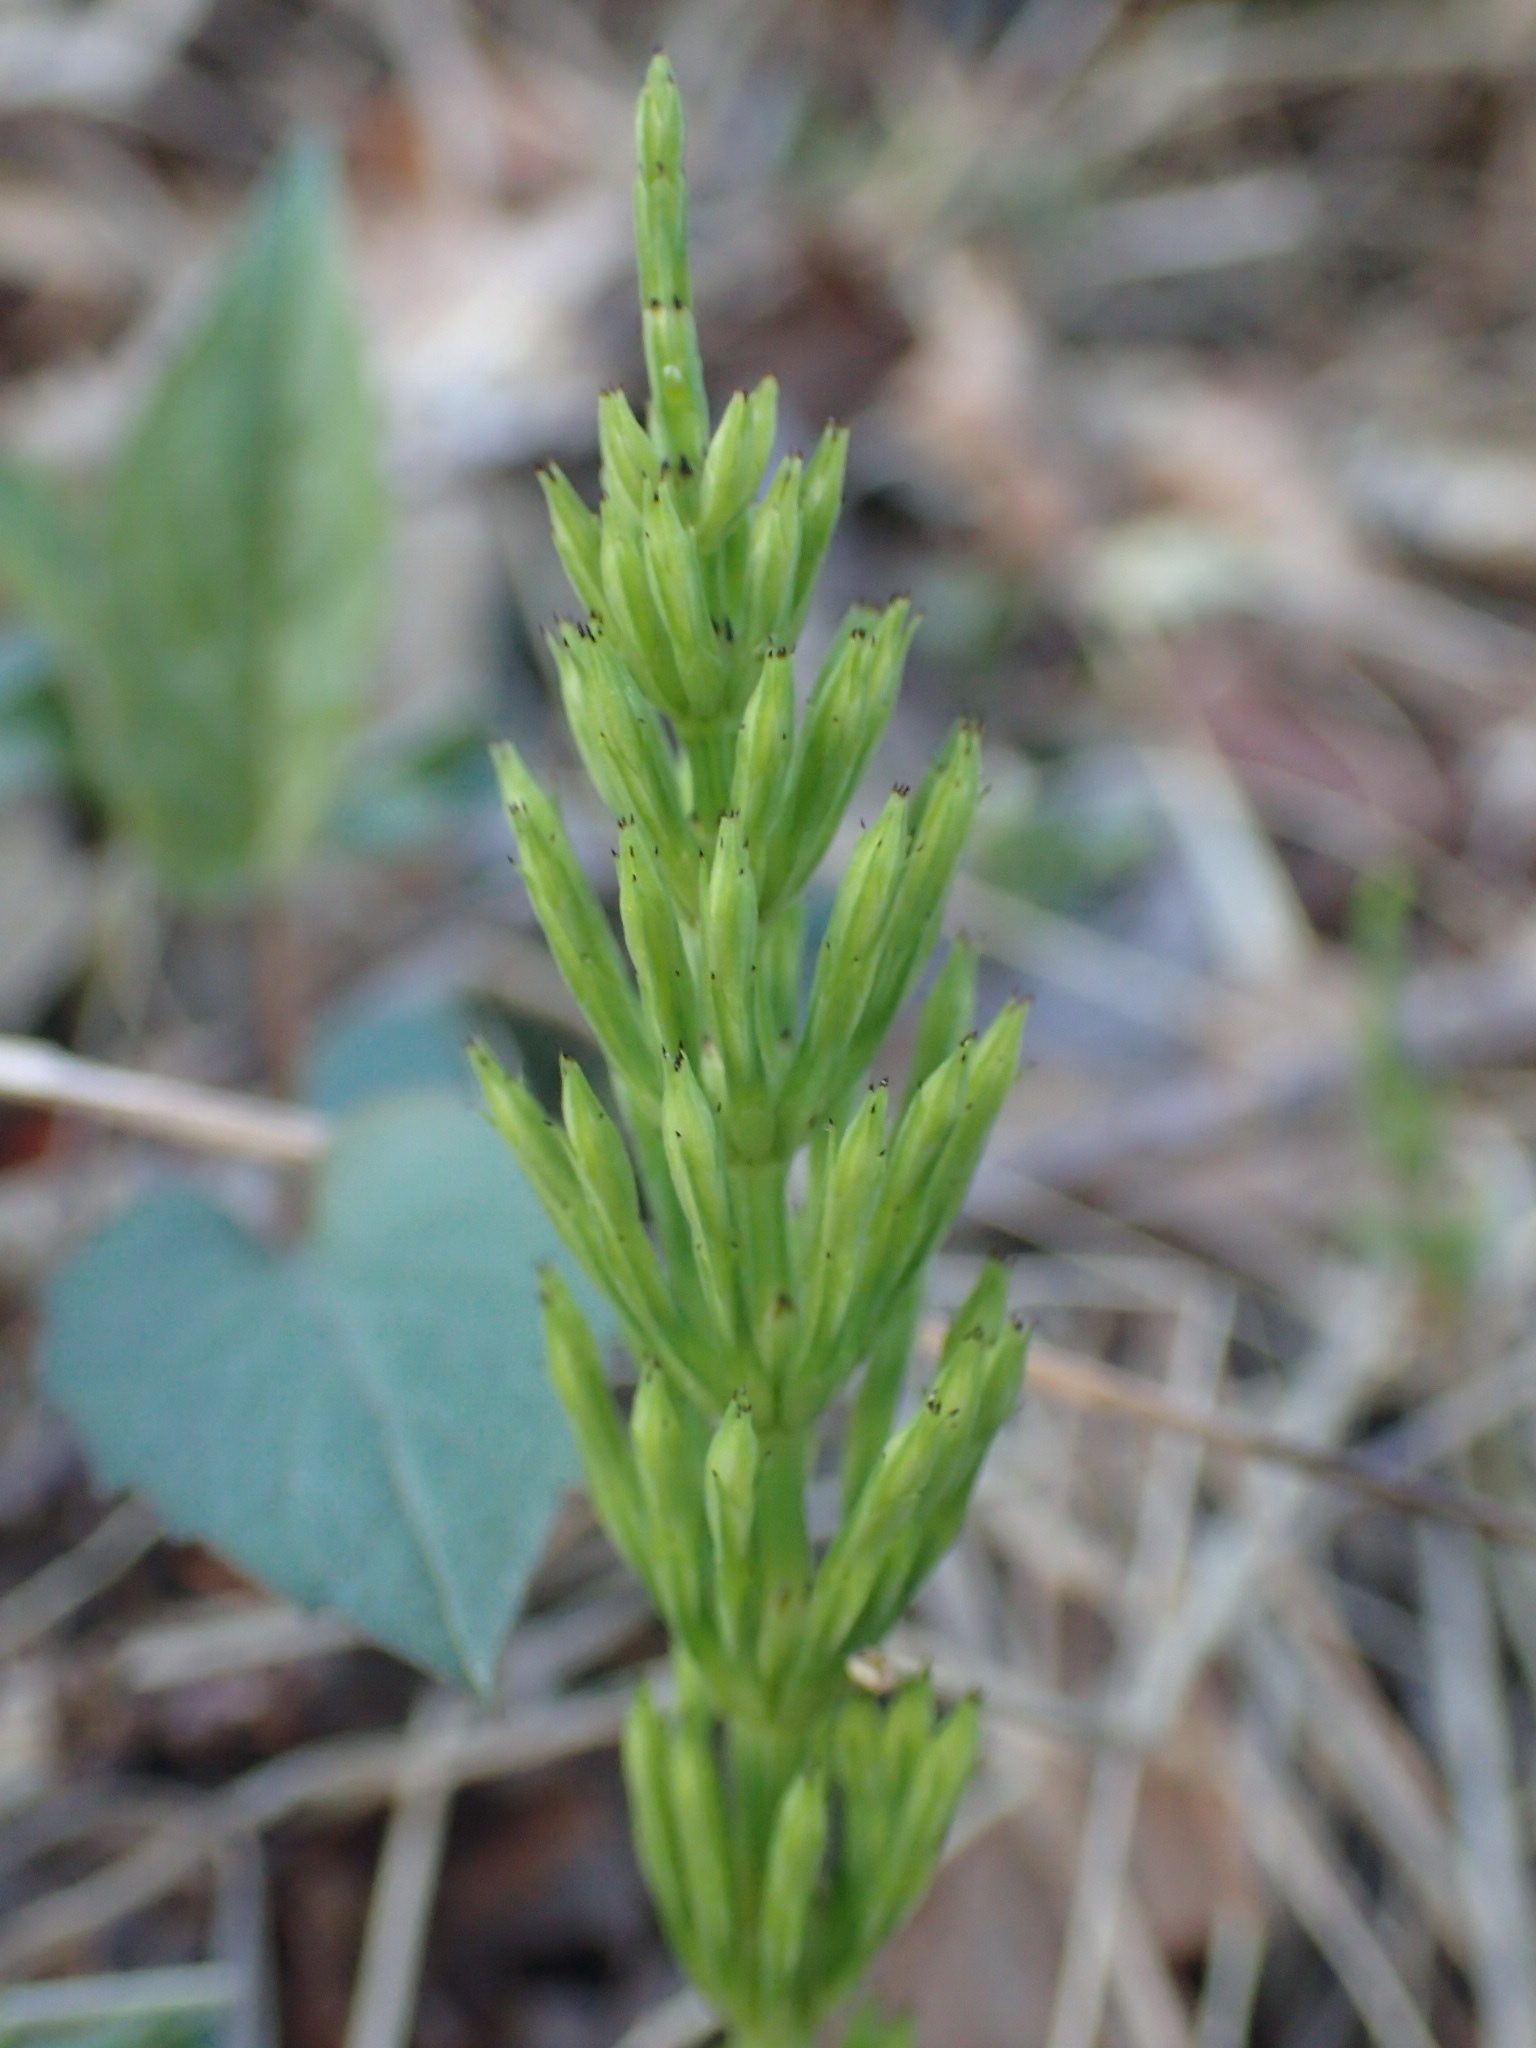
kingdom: Plantae
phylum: Tracheophyta
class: Polypodiopsida
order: Equisetales
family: Equisetaceae
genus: Equisetum
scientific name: Equisetum arvense
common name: Field horsetail
